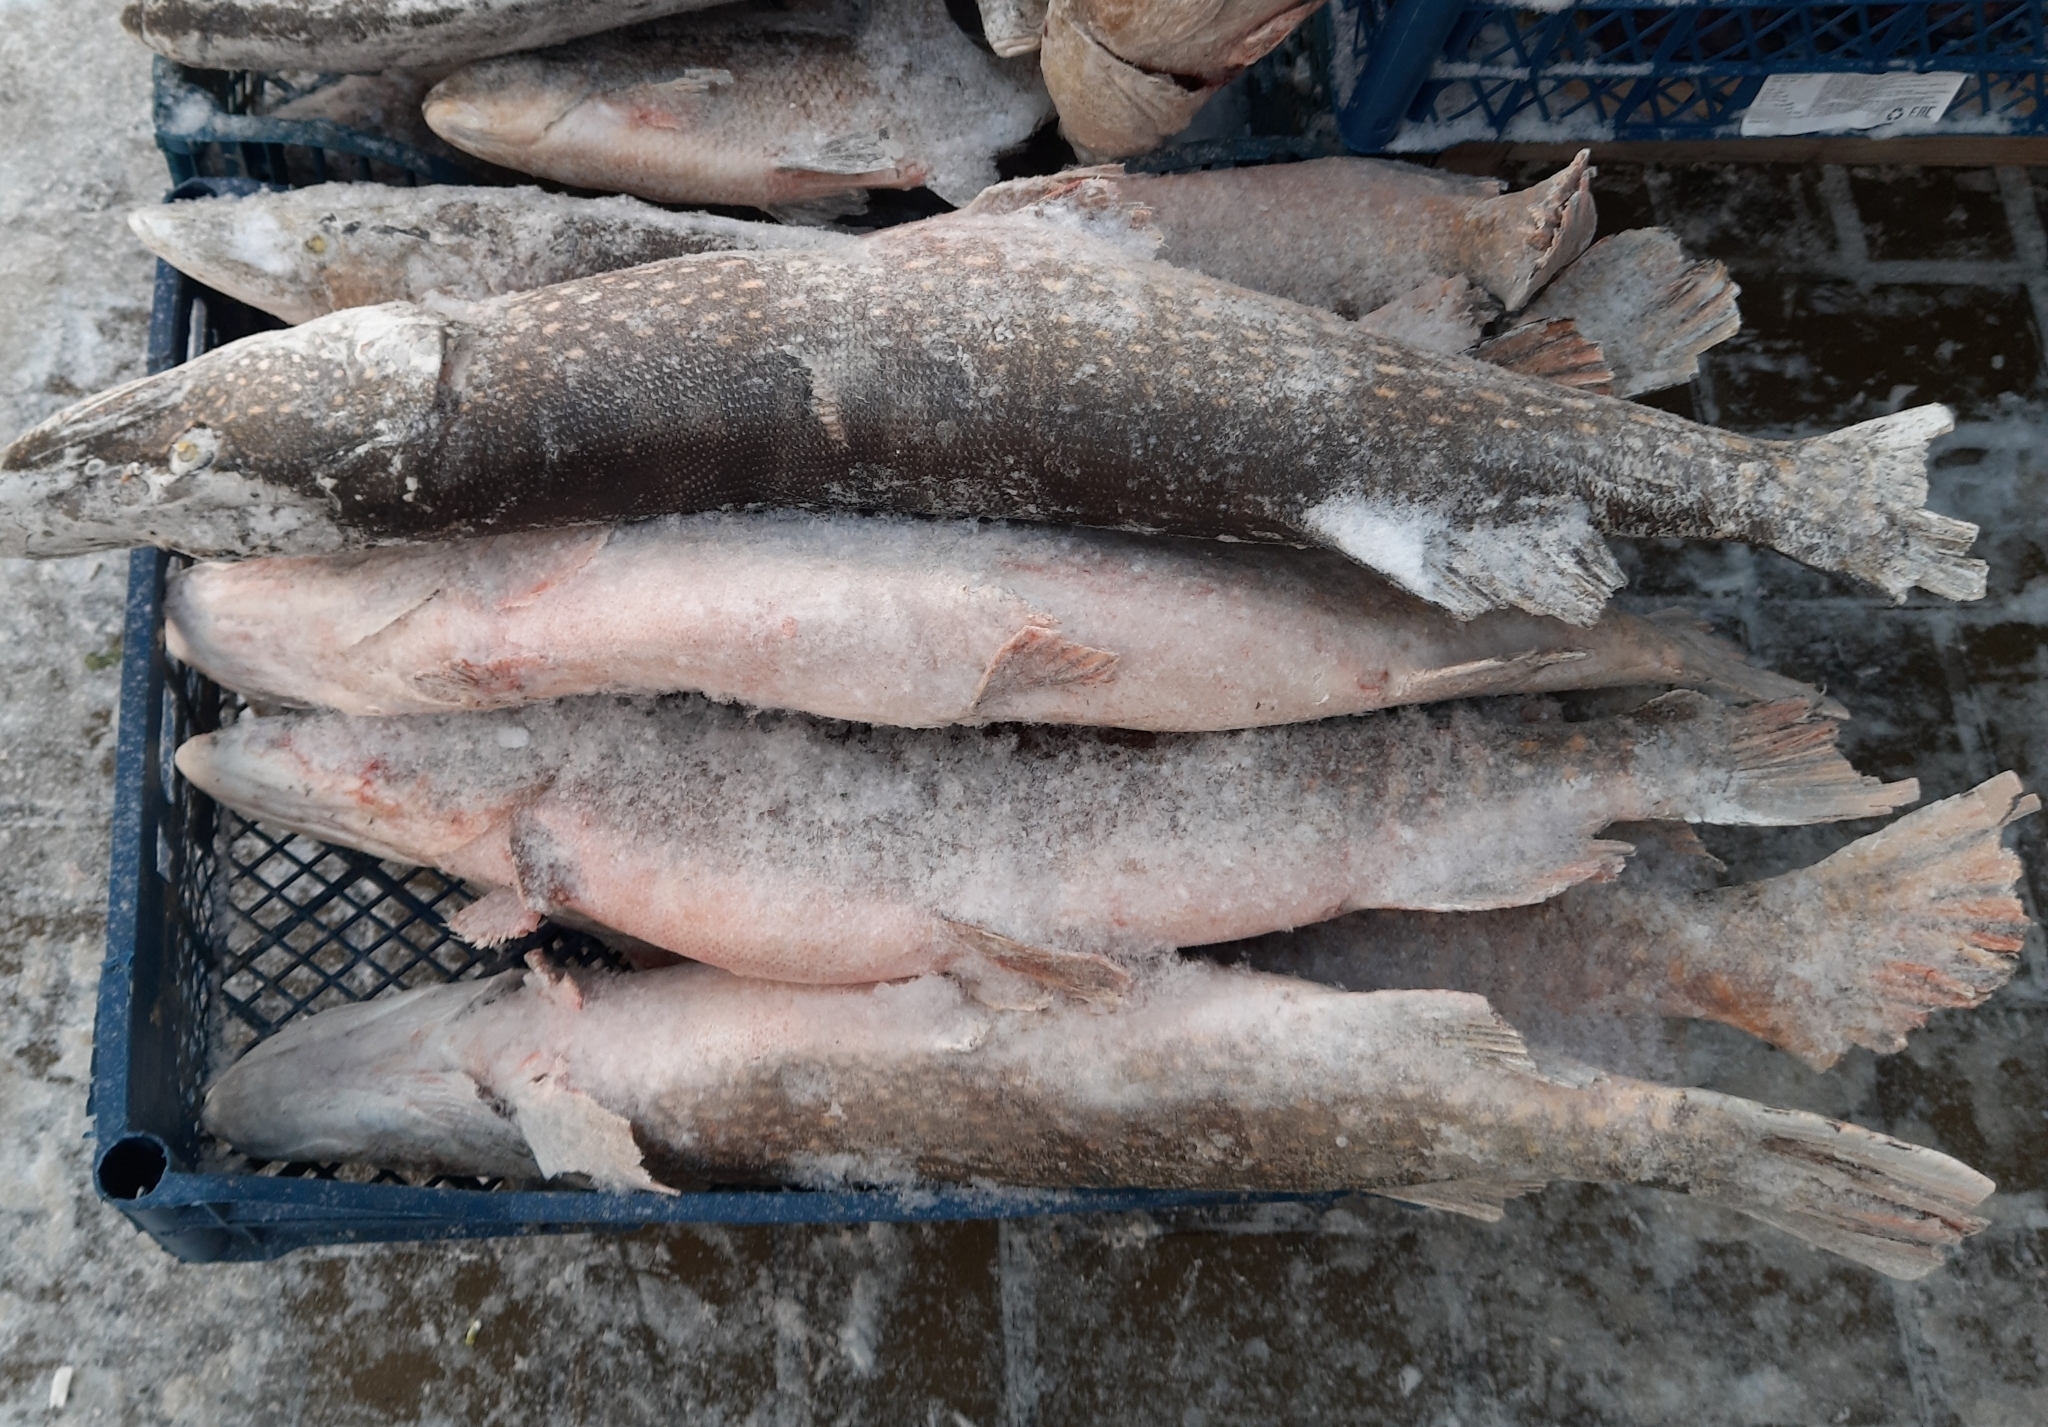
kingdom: Animalia
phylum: Chordata
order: Esociformes
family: Esocidae
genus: Esox
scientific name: Esox lucius
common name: Northern pike
